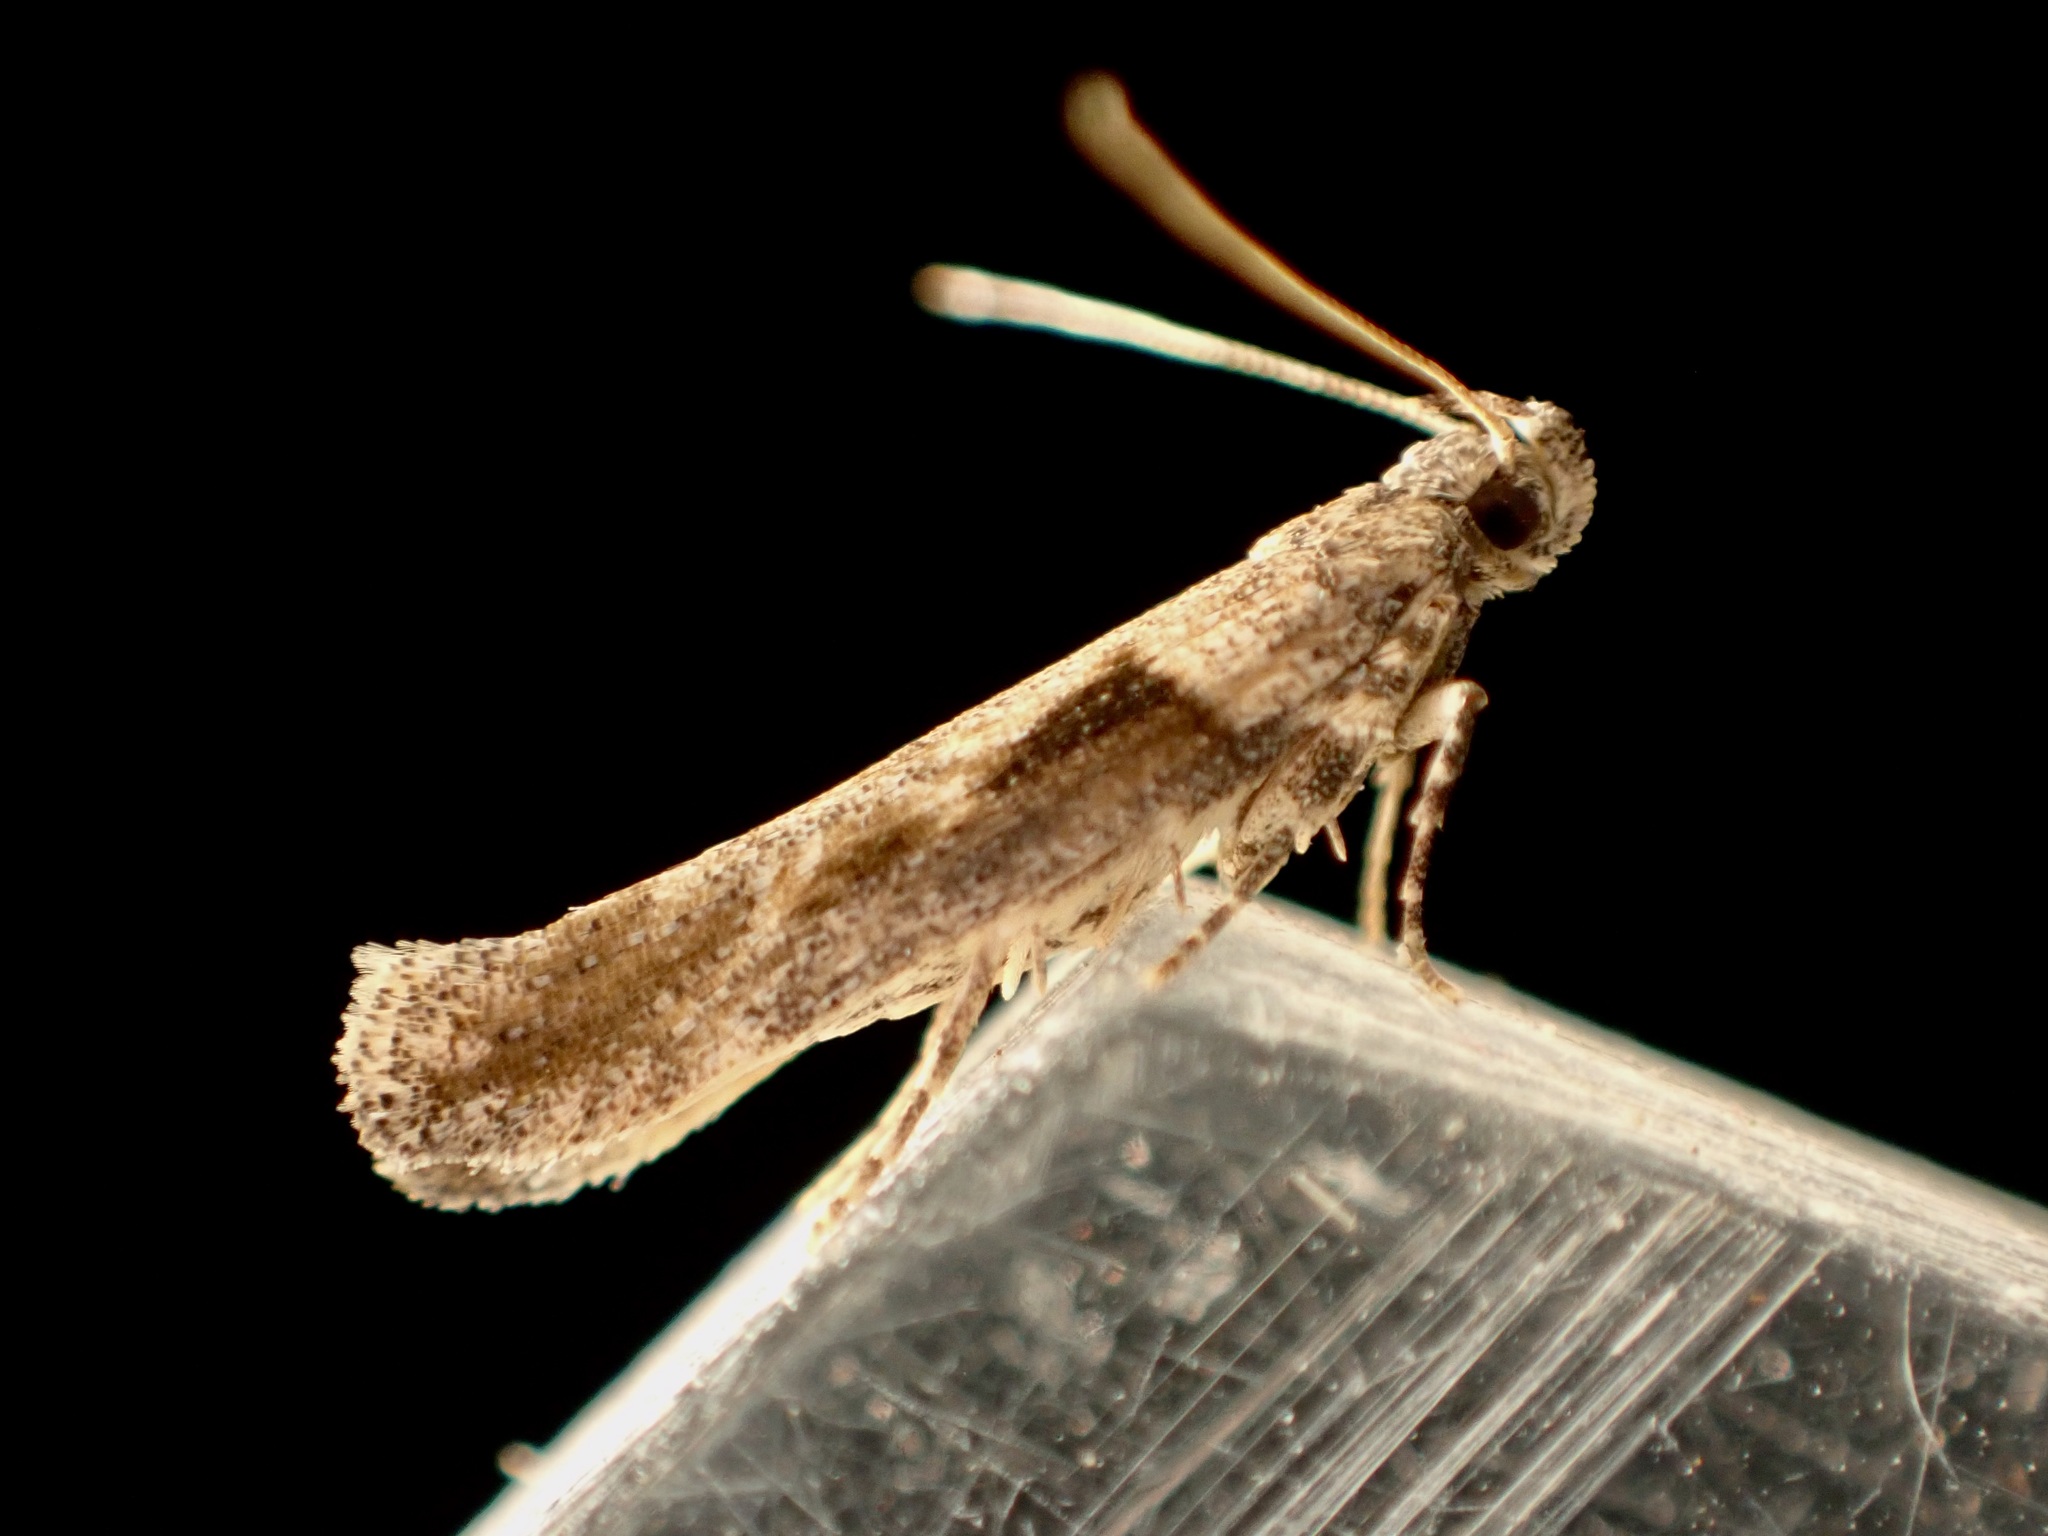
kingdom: Animalia
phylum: Arthropoda
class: Insecta
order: Lepidoptera
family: Gelechiidae
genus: Symmetrischema
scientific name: Symmetrischema tangolias
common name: Moth
